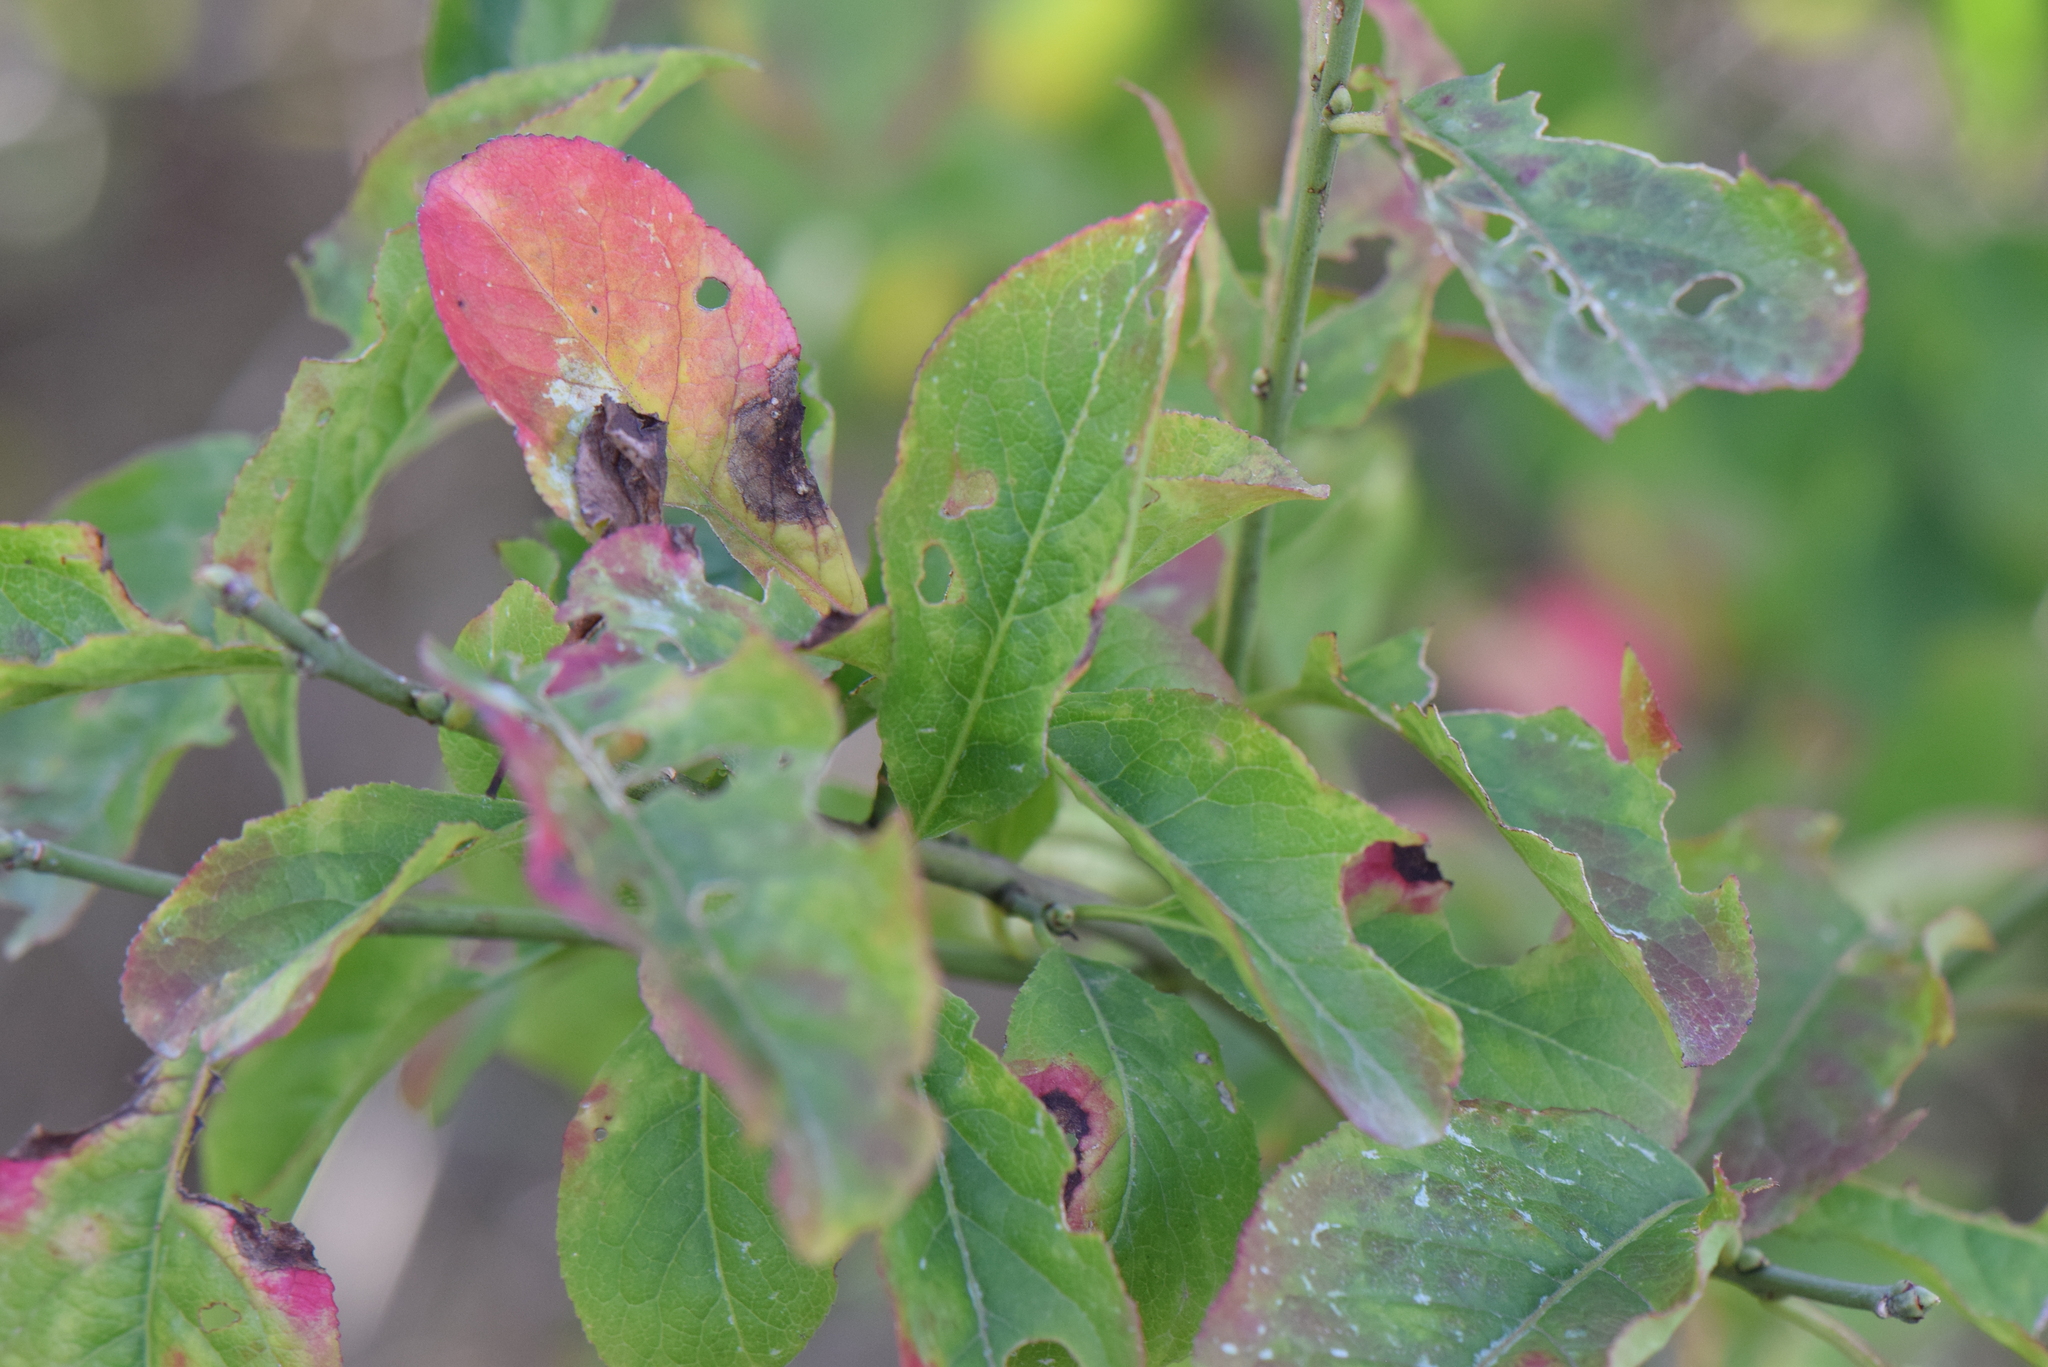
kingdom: Plantae
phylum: Tracheophyta
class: Magnoliopsida
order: Celastrales
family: Celastraceae
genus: Euonymus
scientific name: Euonymus europaeus
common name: Spindle
